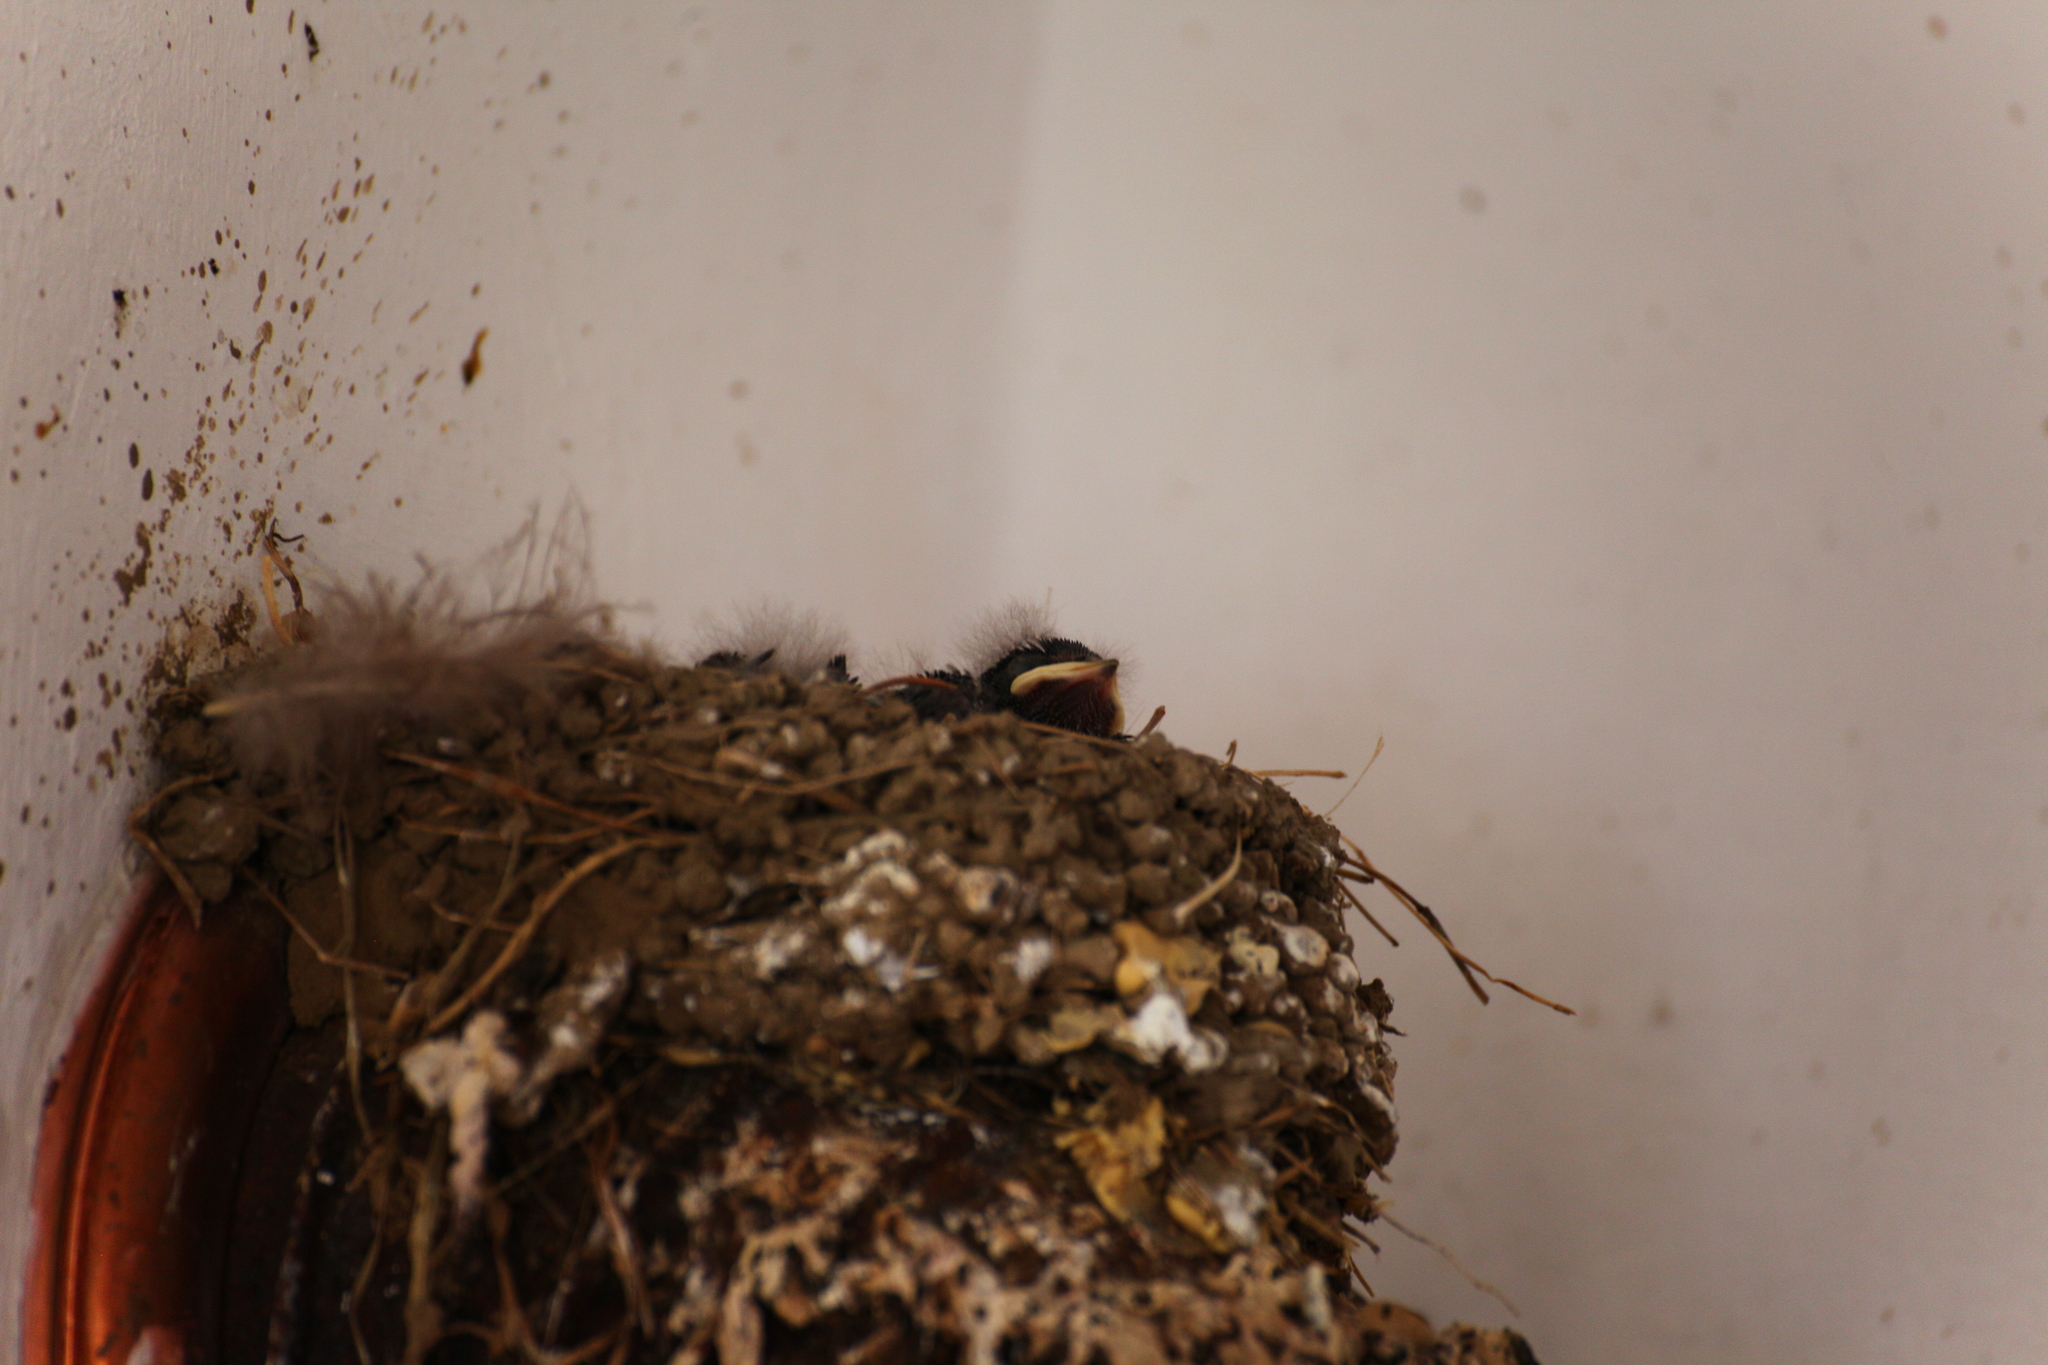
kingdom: Animalia
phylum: Chordata
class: Aves
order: Passeriformes
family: Hirundinidae
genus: Hirundo
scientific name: Hirundo rustica
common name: Barn swallow
